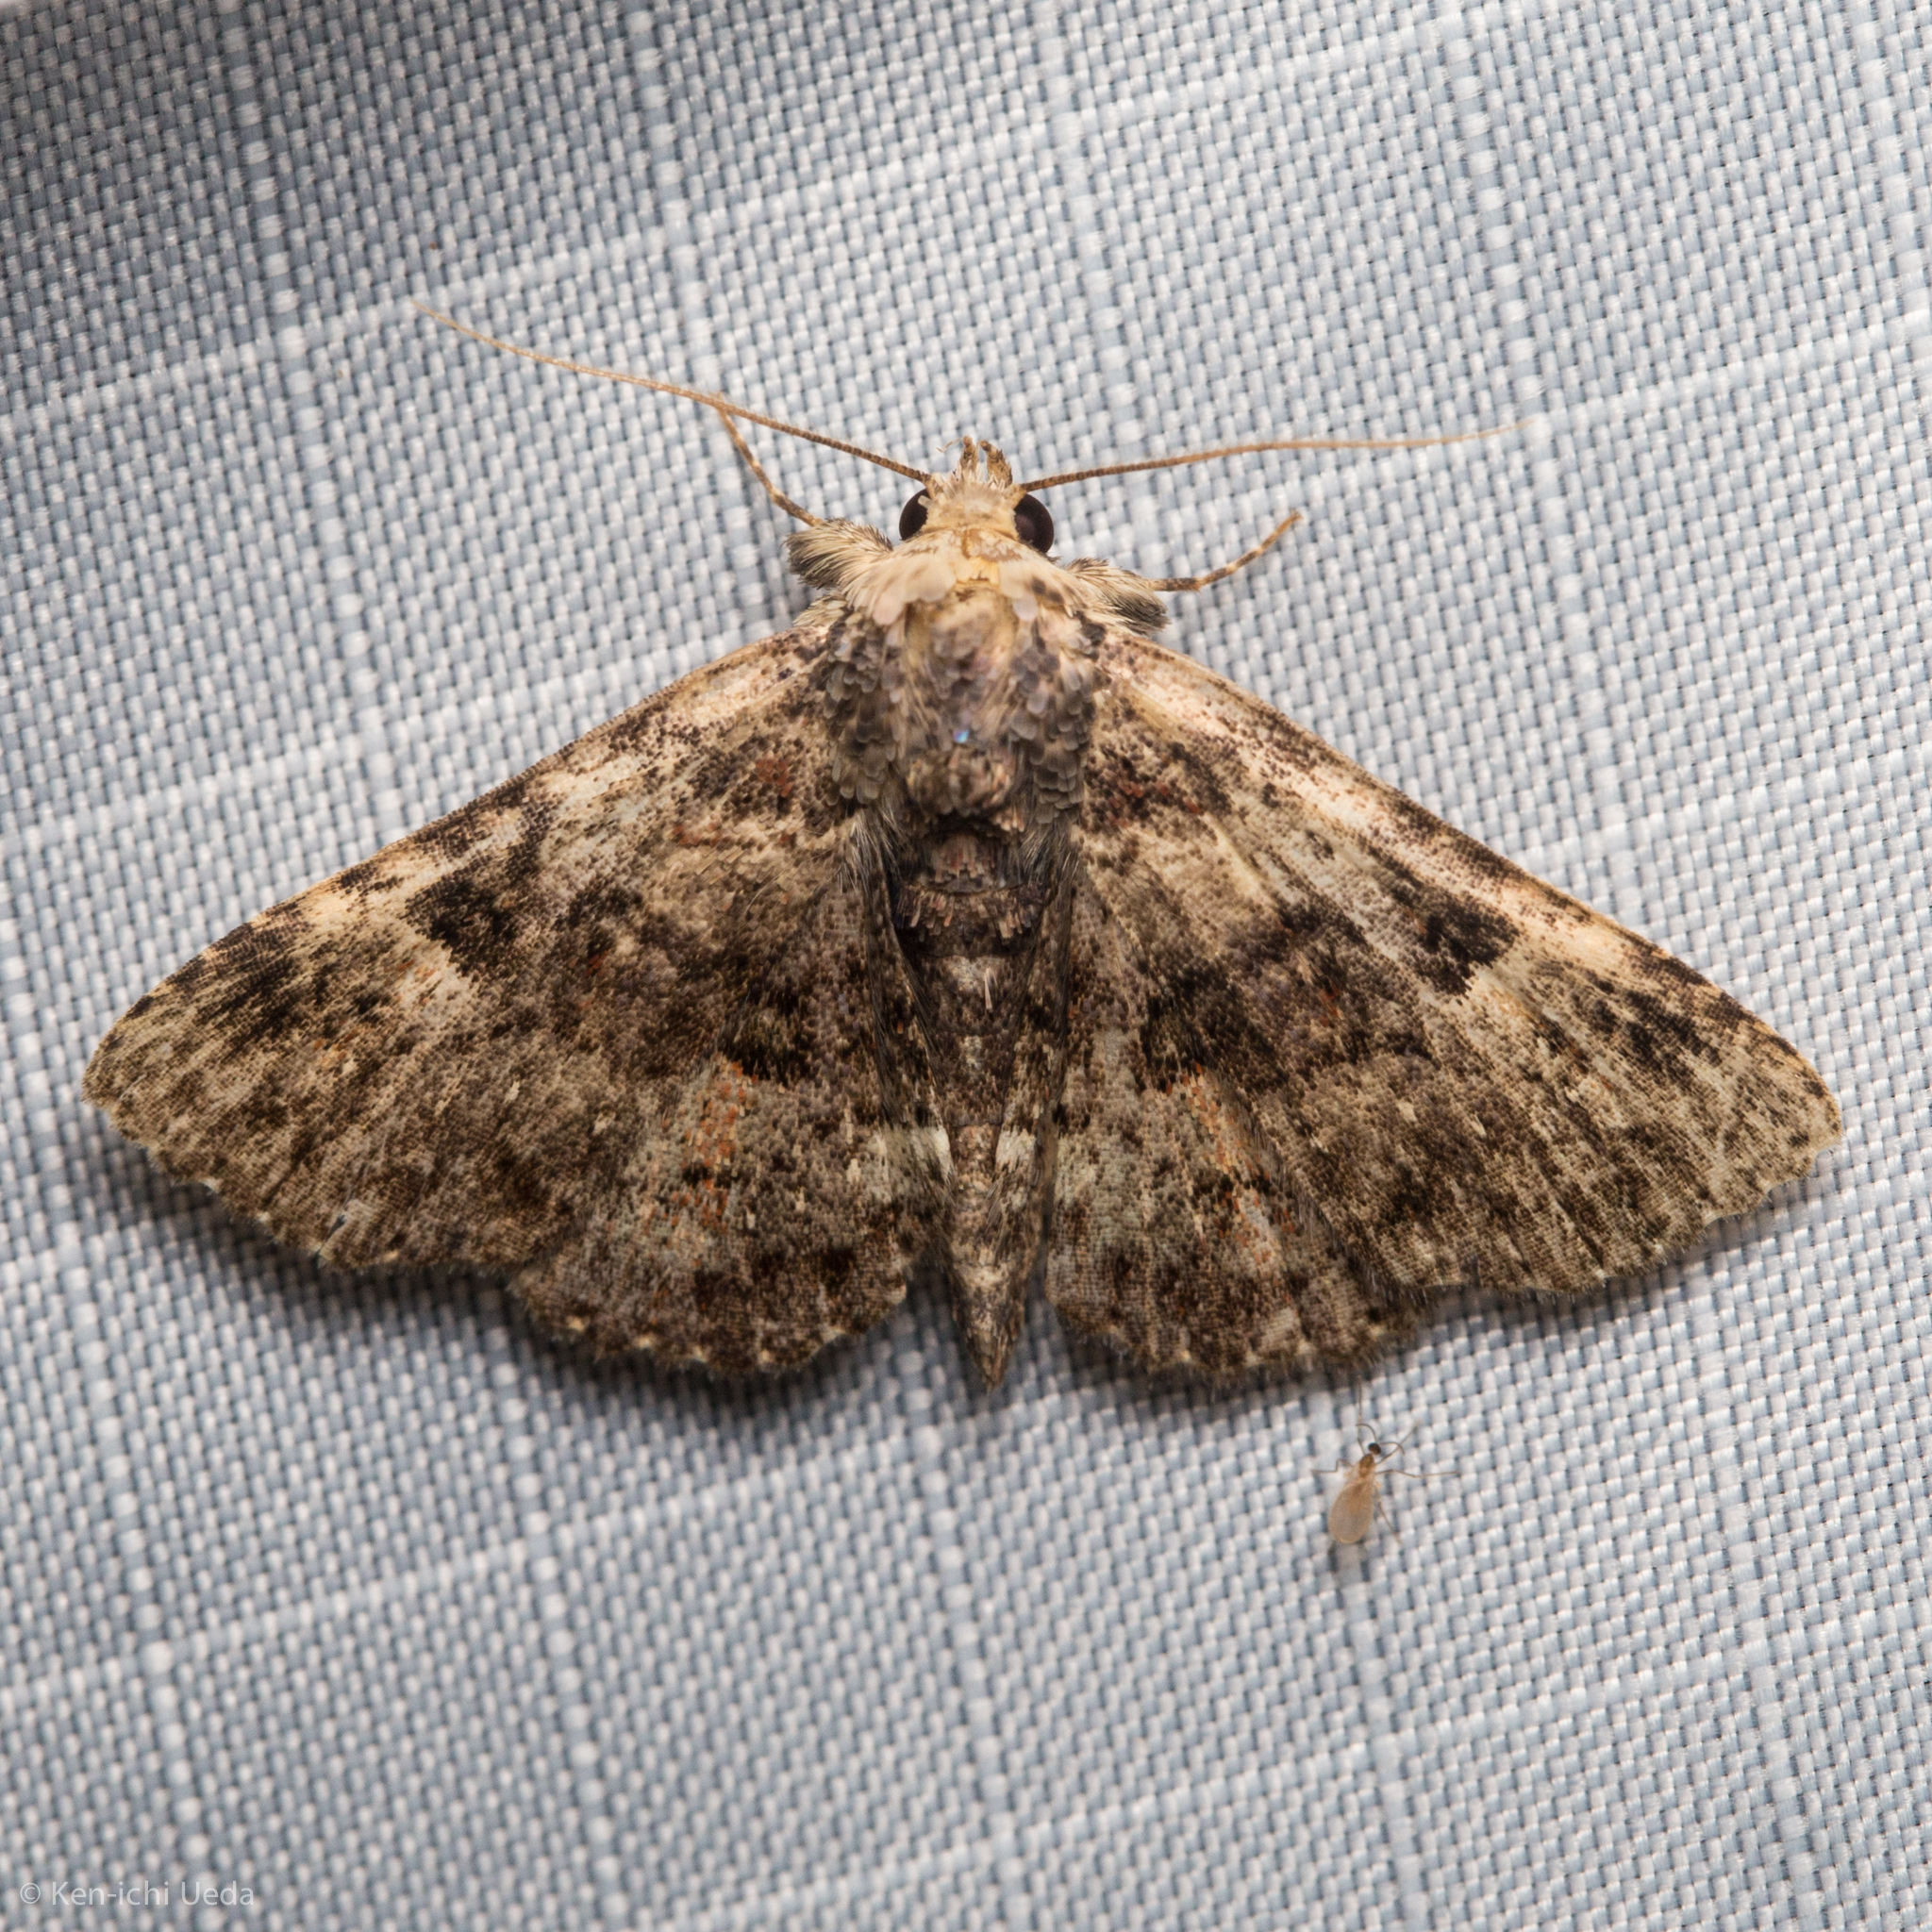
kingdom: Animalia
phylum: Arthropoda
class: Insecta
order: Lepidoptera
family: Erebidae
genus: Metalectra
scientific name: Metalectra discalis
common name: Common fungus moth
